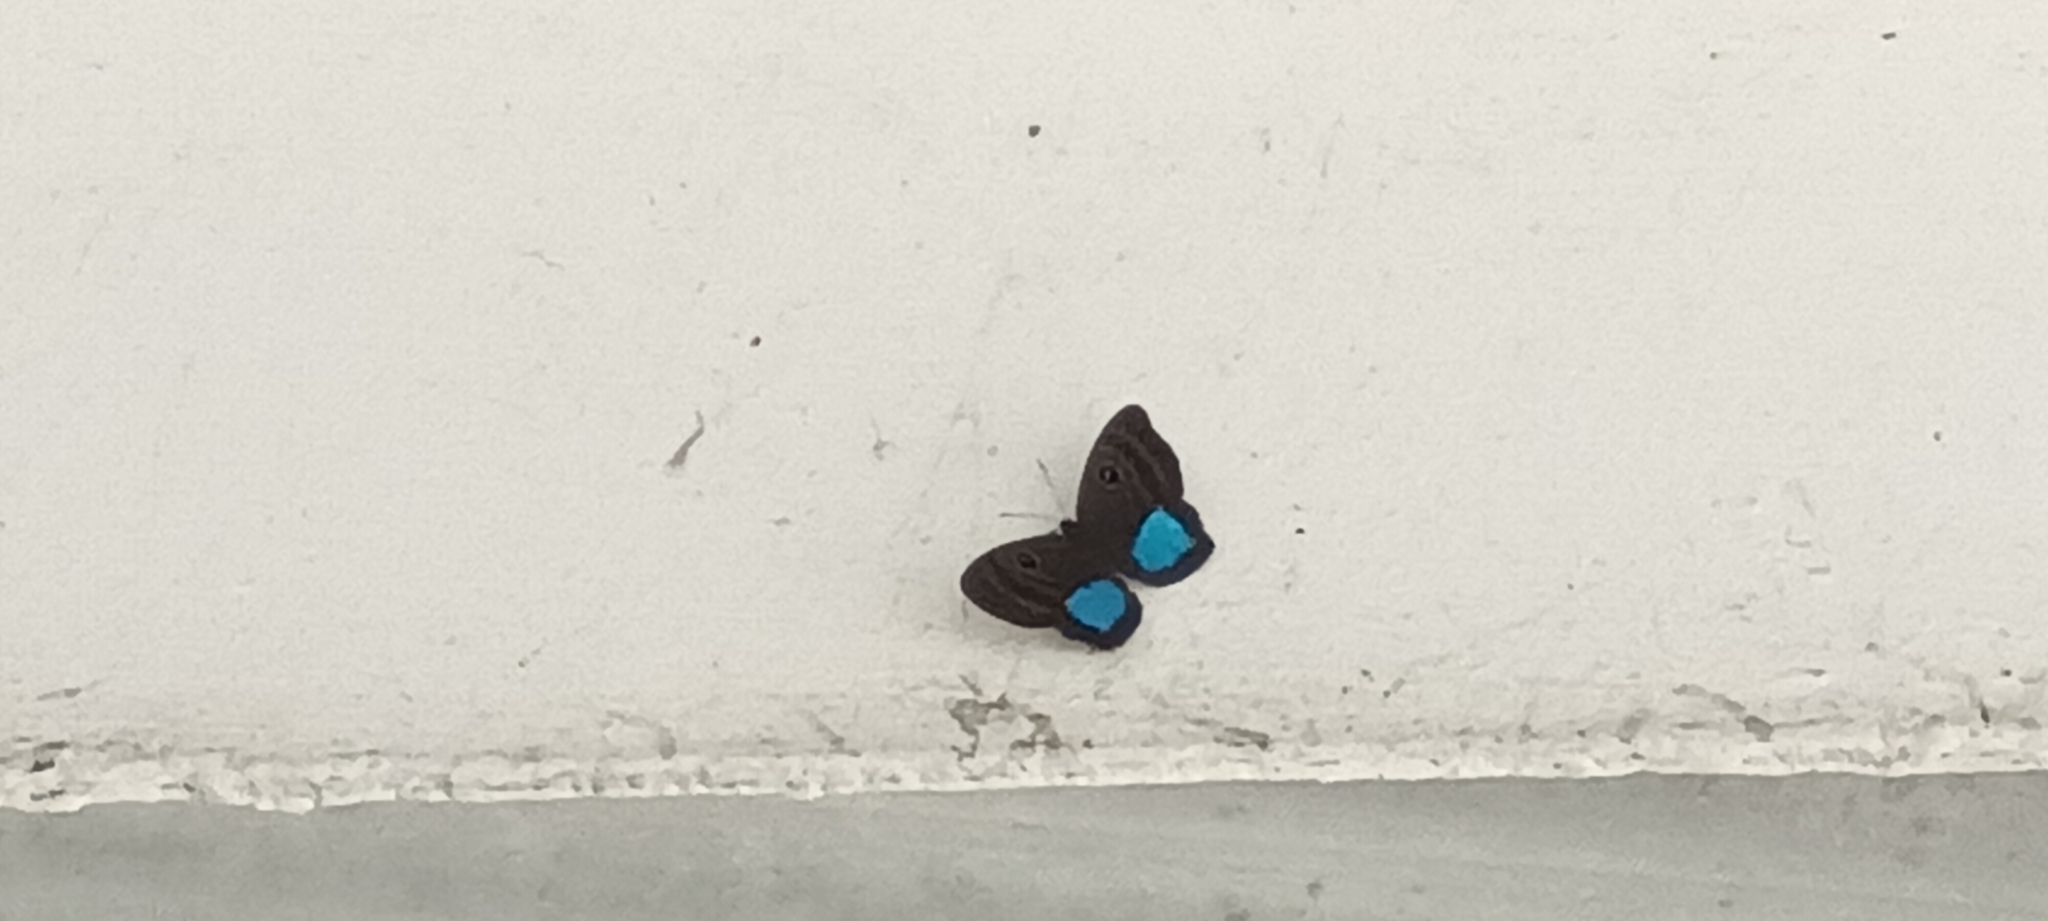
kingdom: Animalia
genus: Mesosemia
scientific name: Mesosemia carissima
